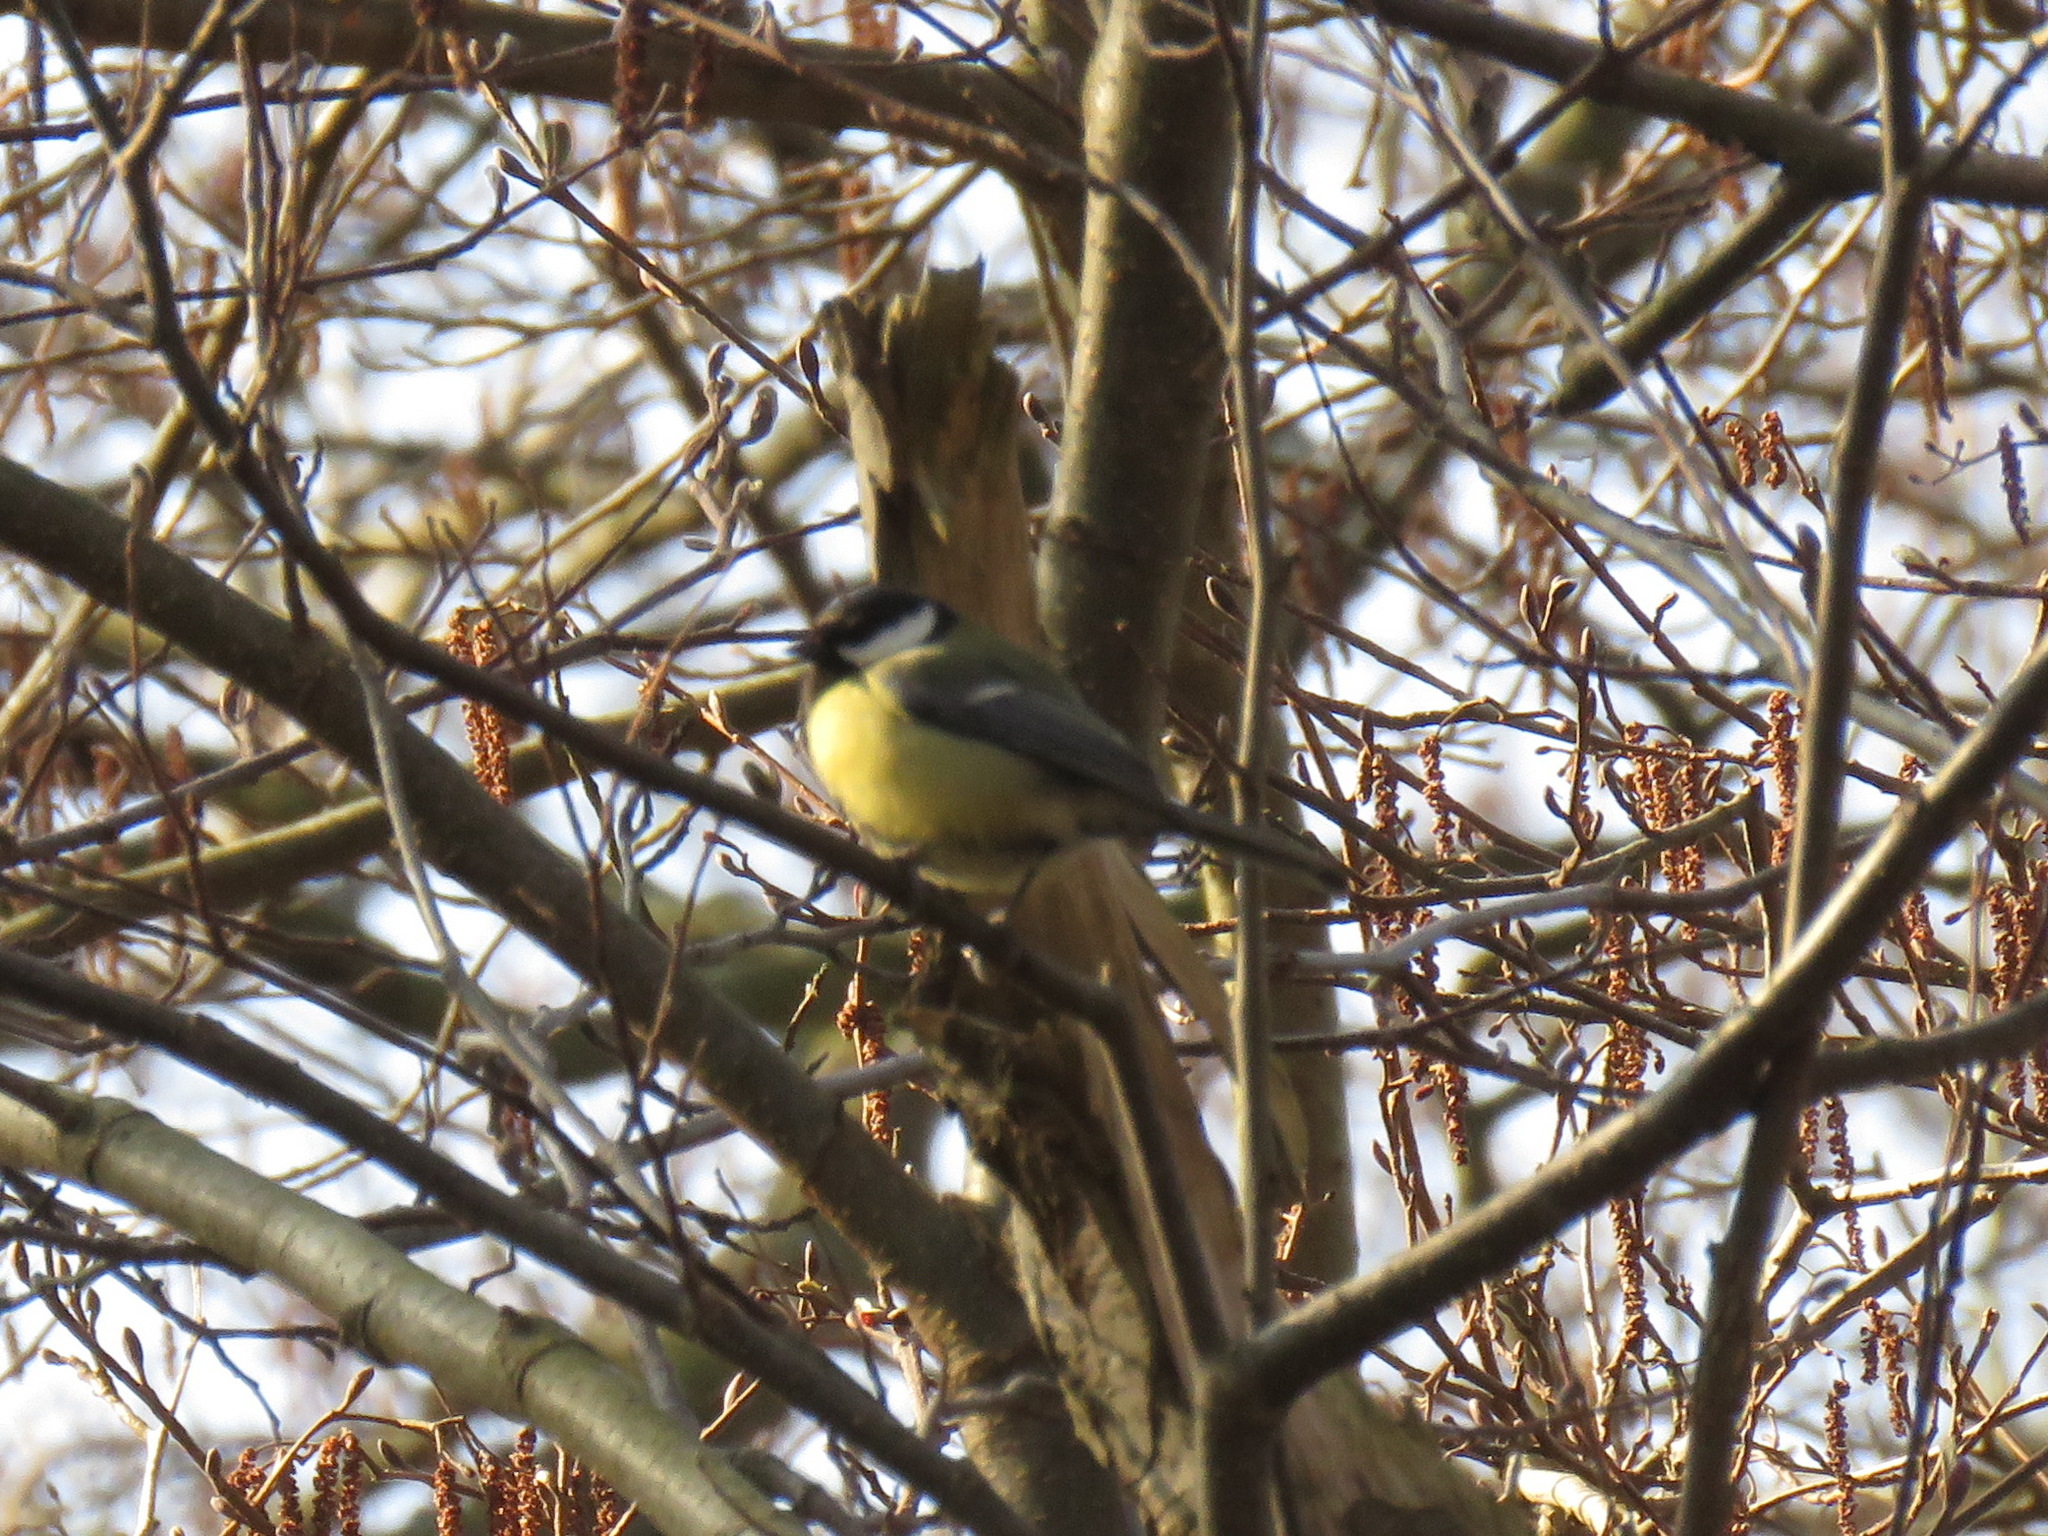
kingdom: Animalia
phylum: Chordata
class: Aves
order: Passeriformes
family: Paridae
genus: Parus
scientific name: Parus major
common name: Great tit
